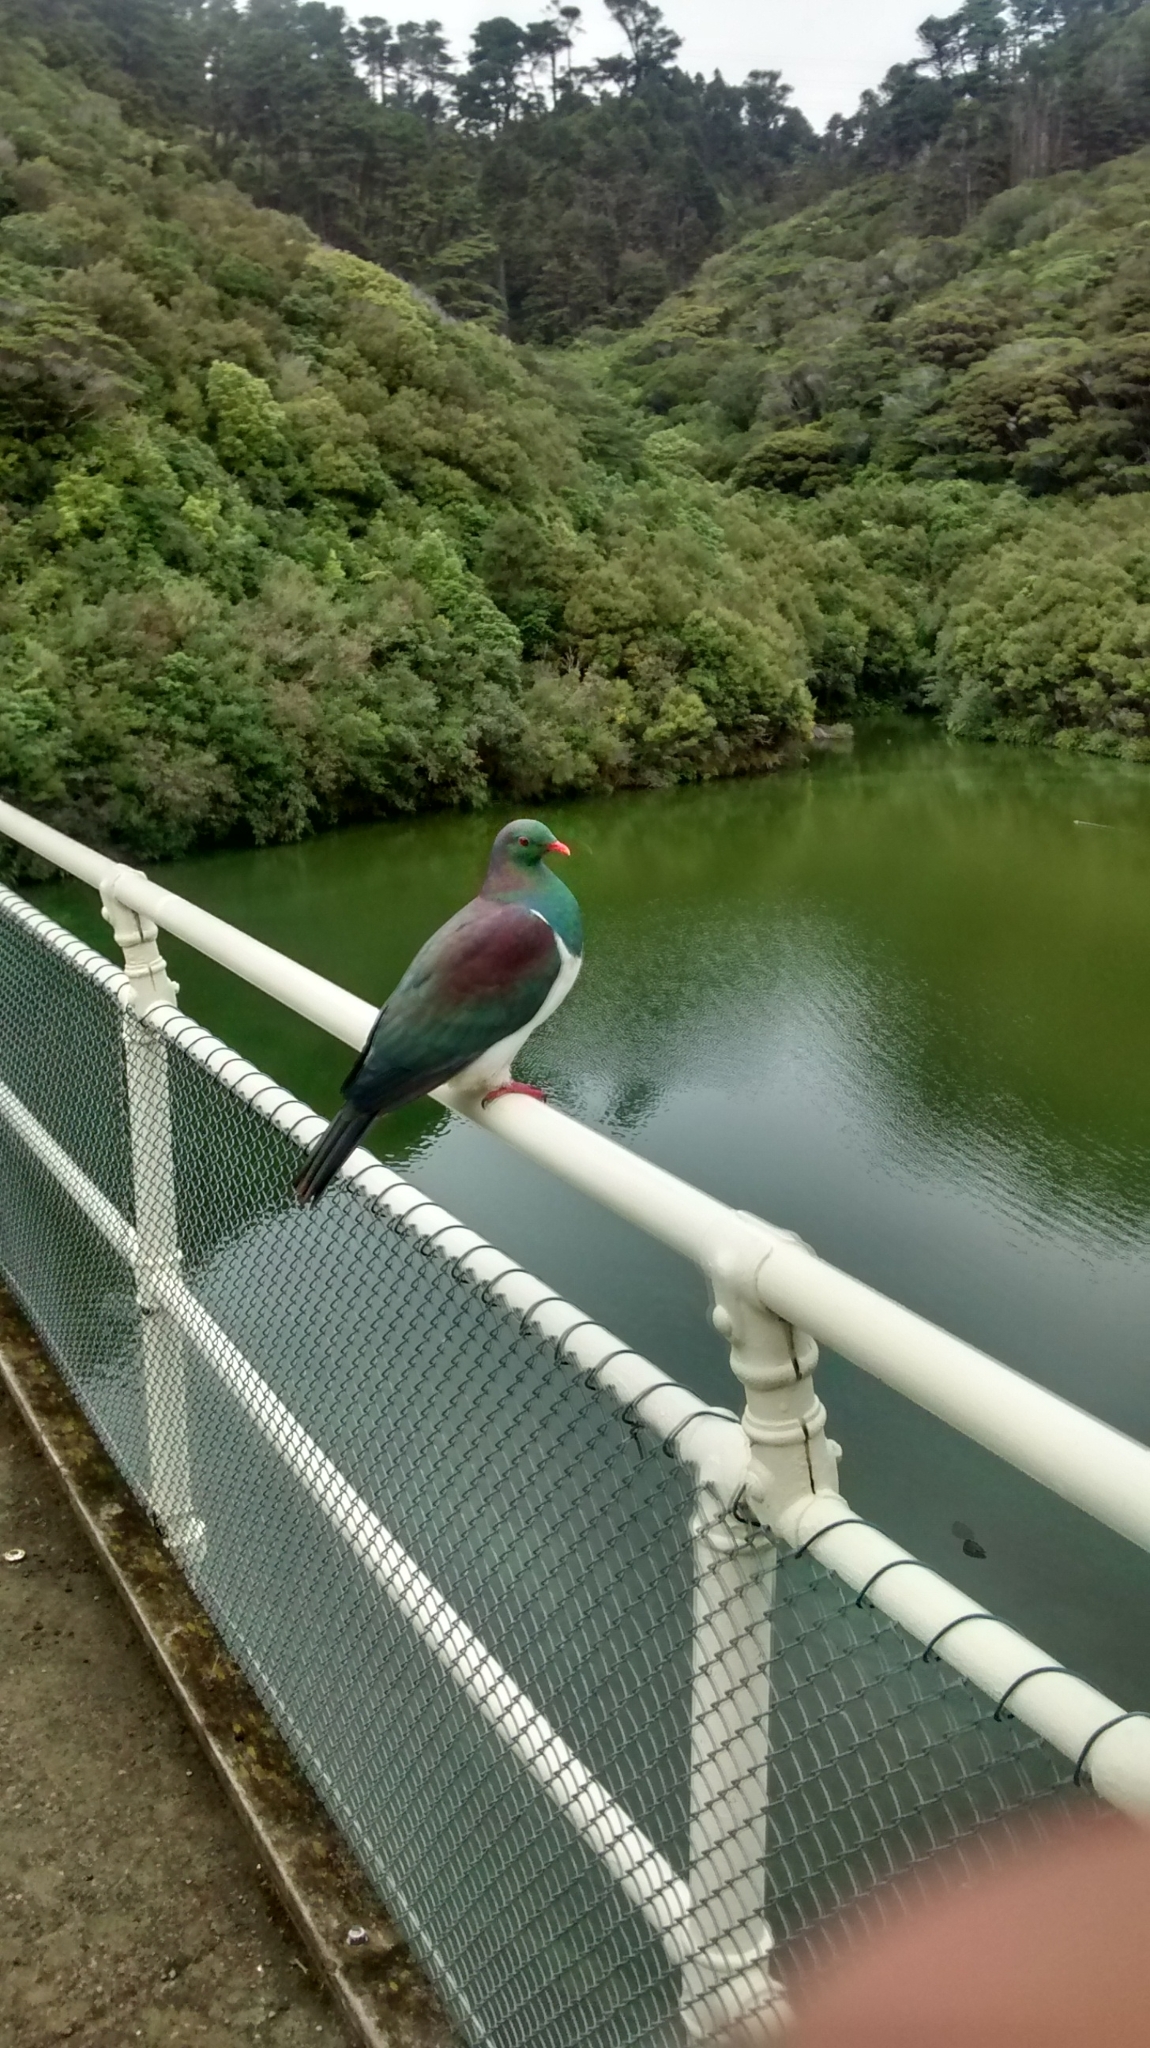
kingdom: Animalia
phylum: Chordata
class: Aves
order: Columbiformes
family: Columbidae
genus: Hemiphaga
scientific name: Hemiphaga novaeseelandiae
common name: New zealand pigeon
